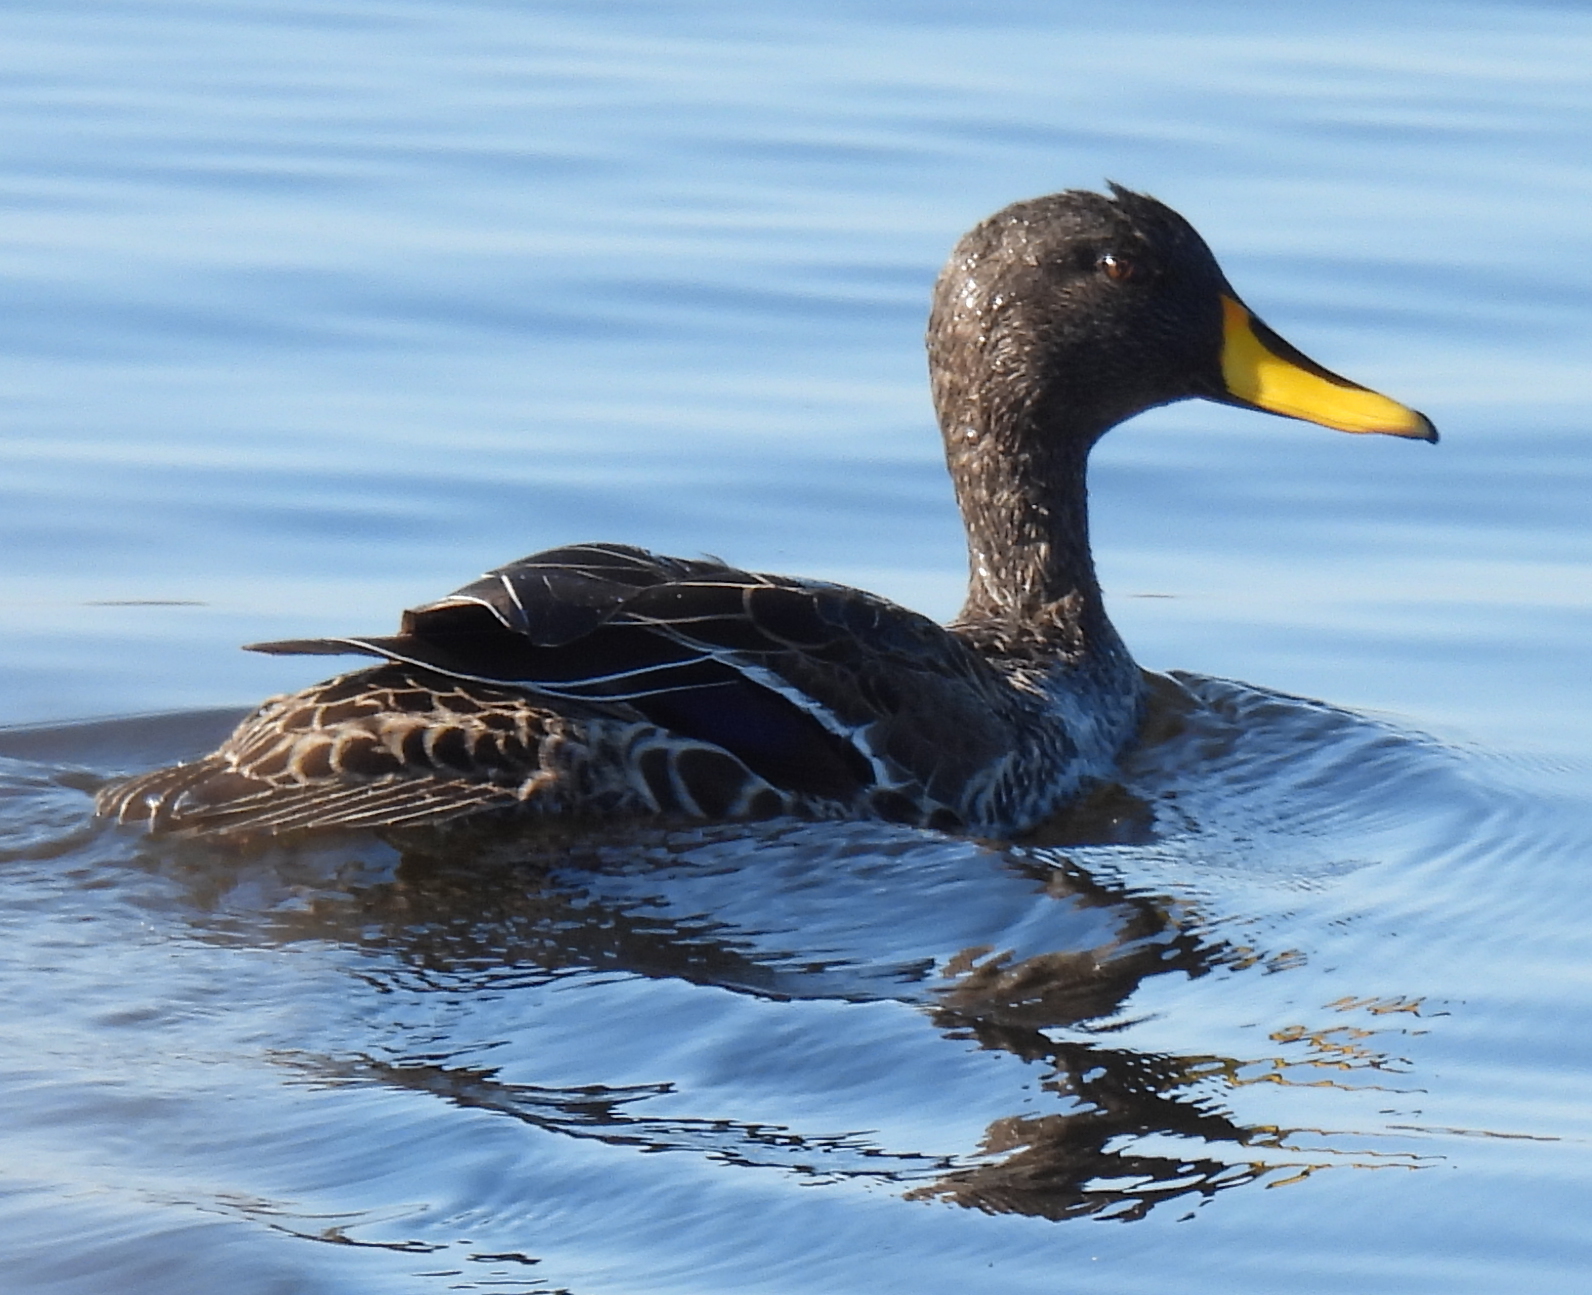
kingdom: Animalia
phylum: Chordata
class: Aves
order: Anseriformes
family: Anatidae
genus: Anas
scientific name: Anas undulata
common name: Yellow-billed duck
